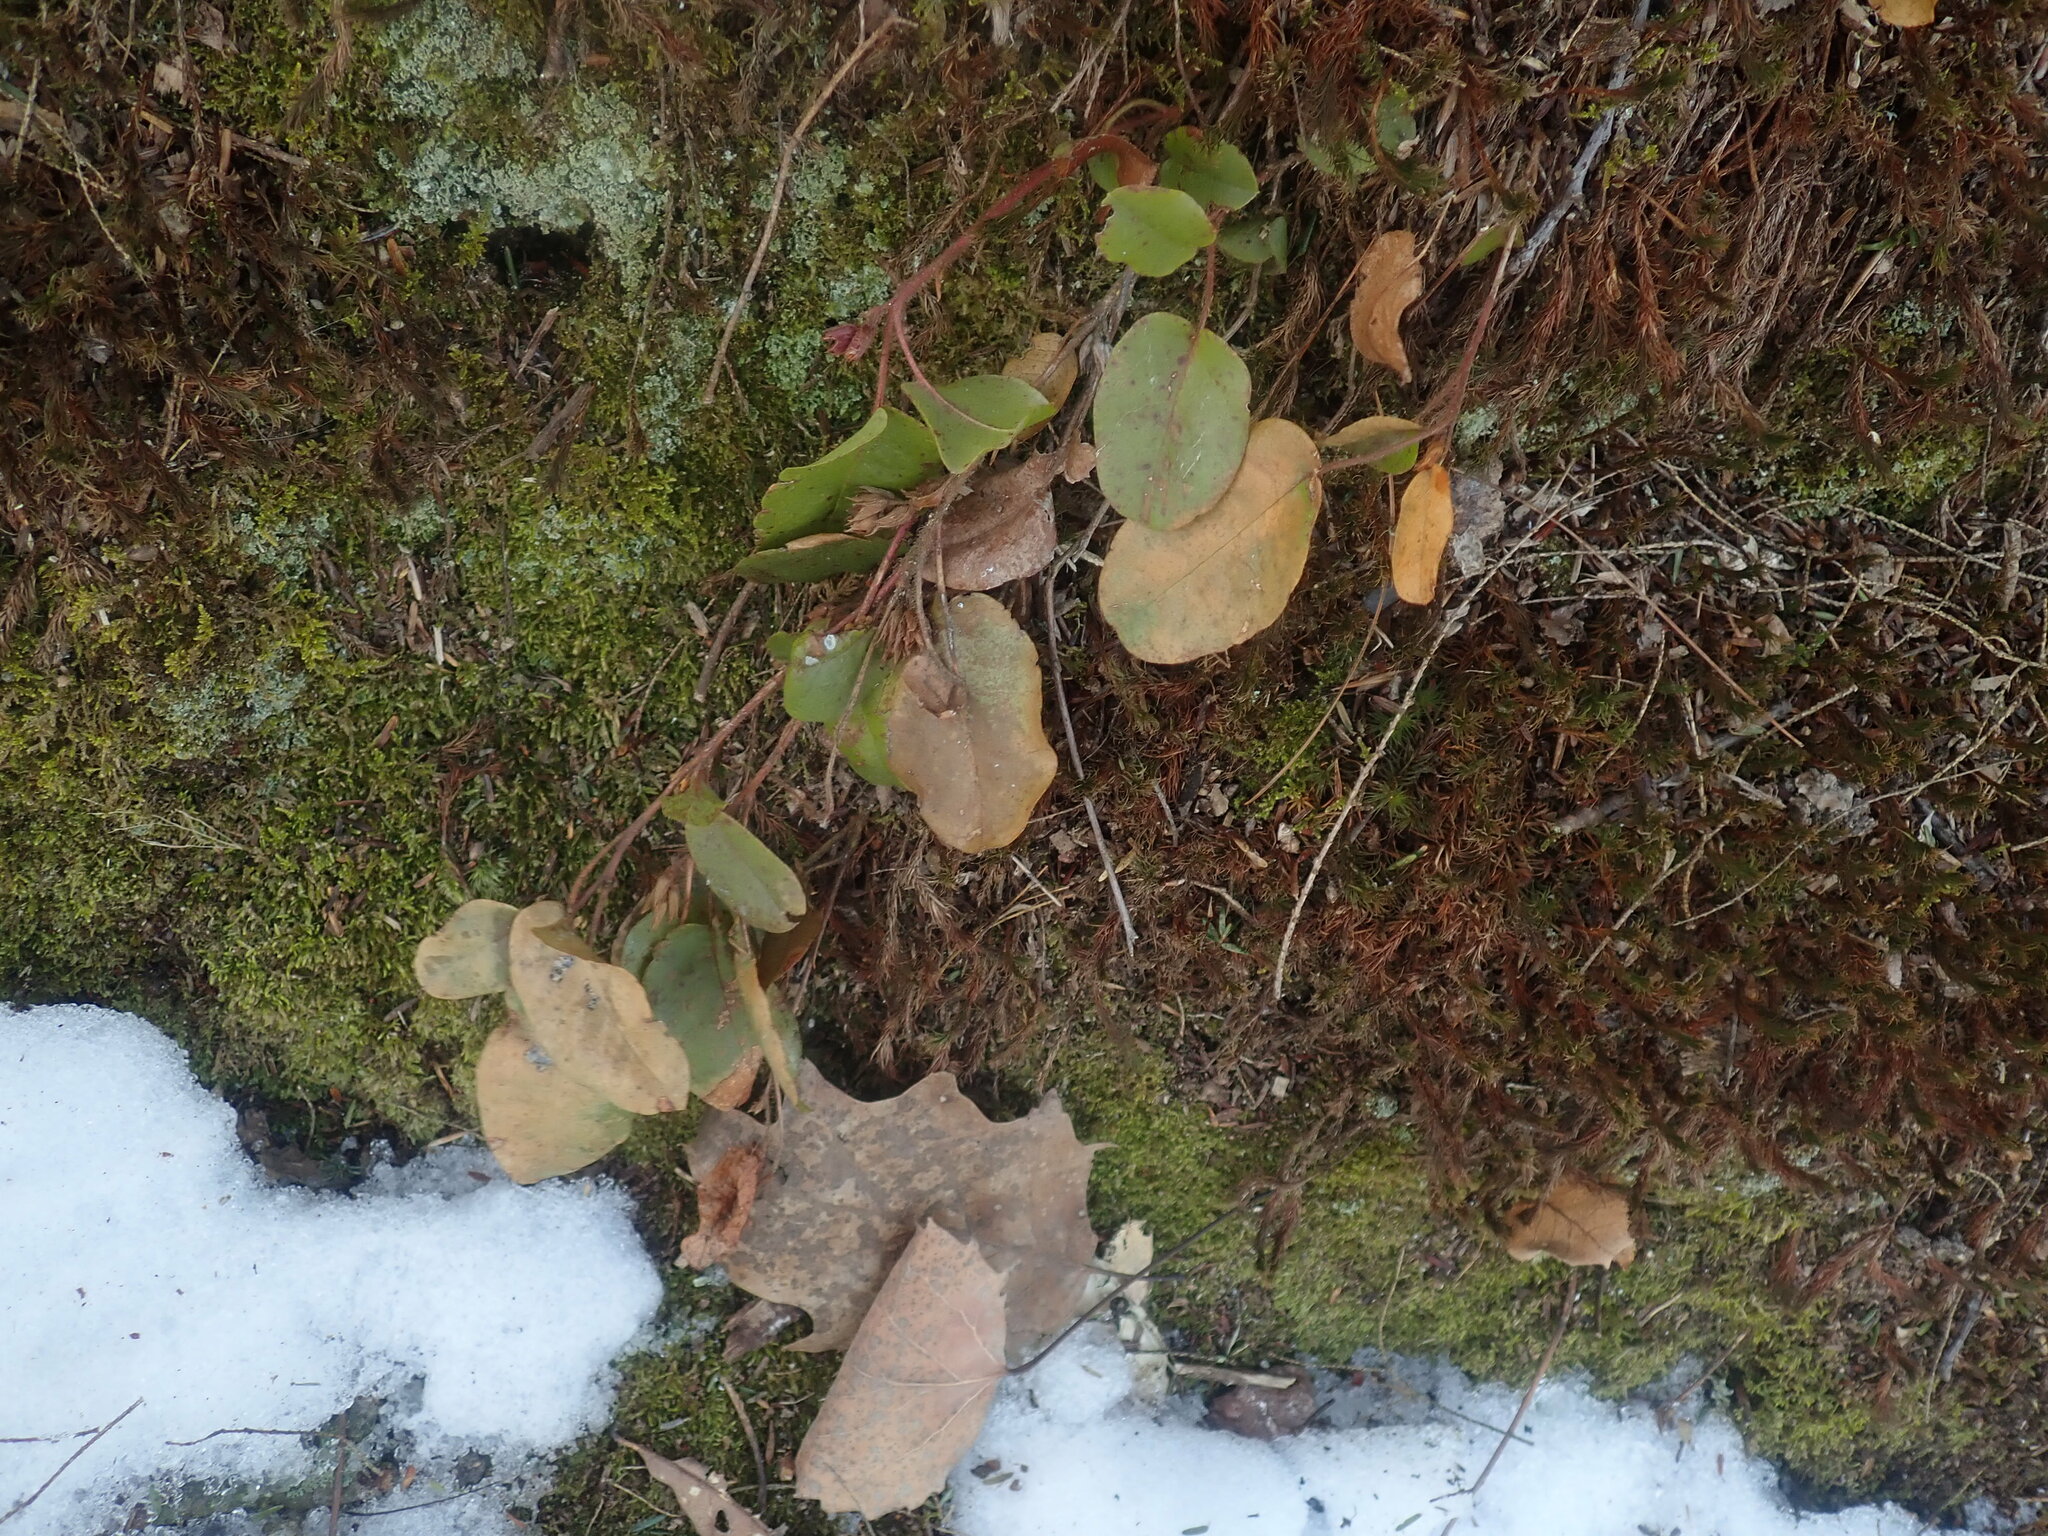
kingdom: Plantae
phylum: Tracheophyta
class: Magnoliopsida
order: Ericales
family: Ericaceae
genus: Epigaea
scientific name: Epigaea repens
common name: Gravelroot
